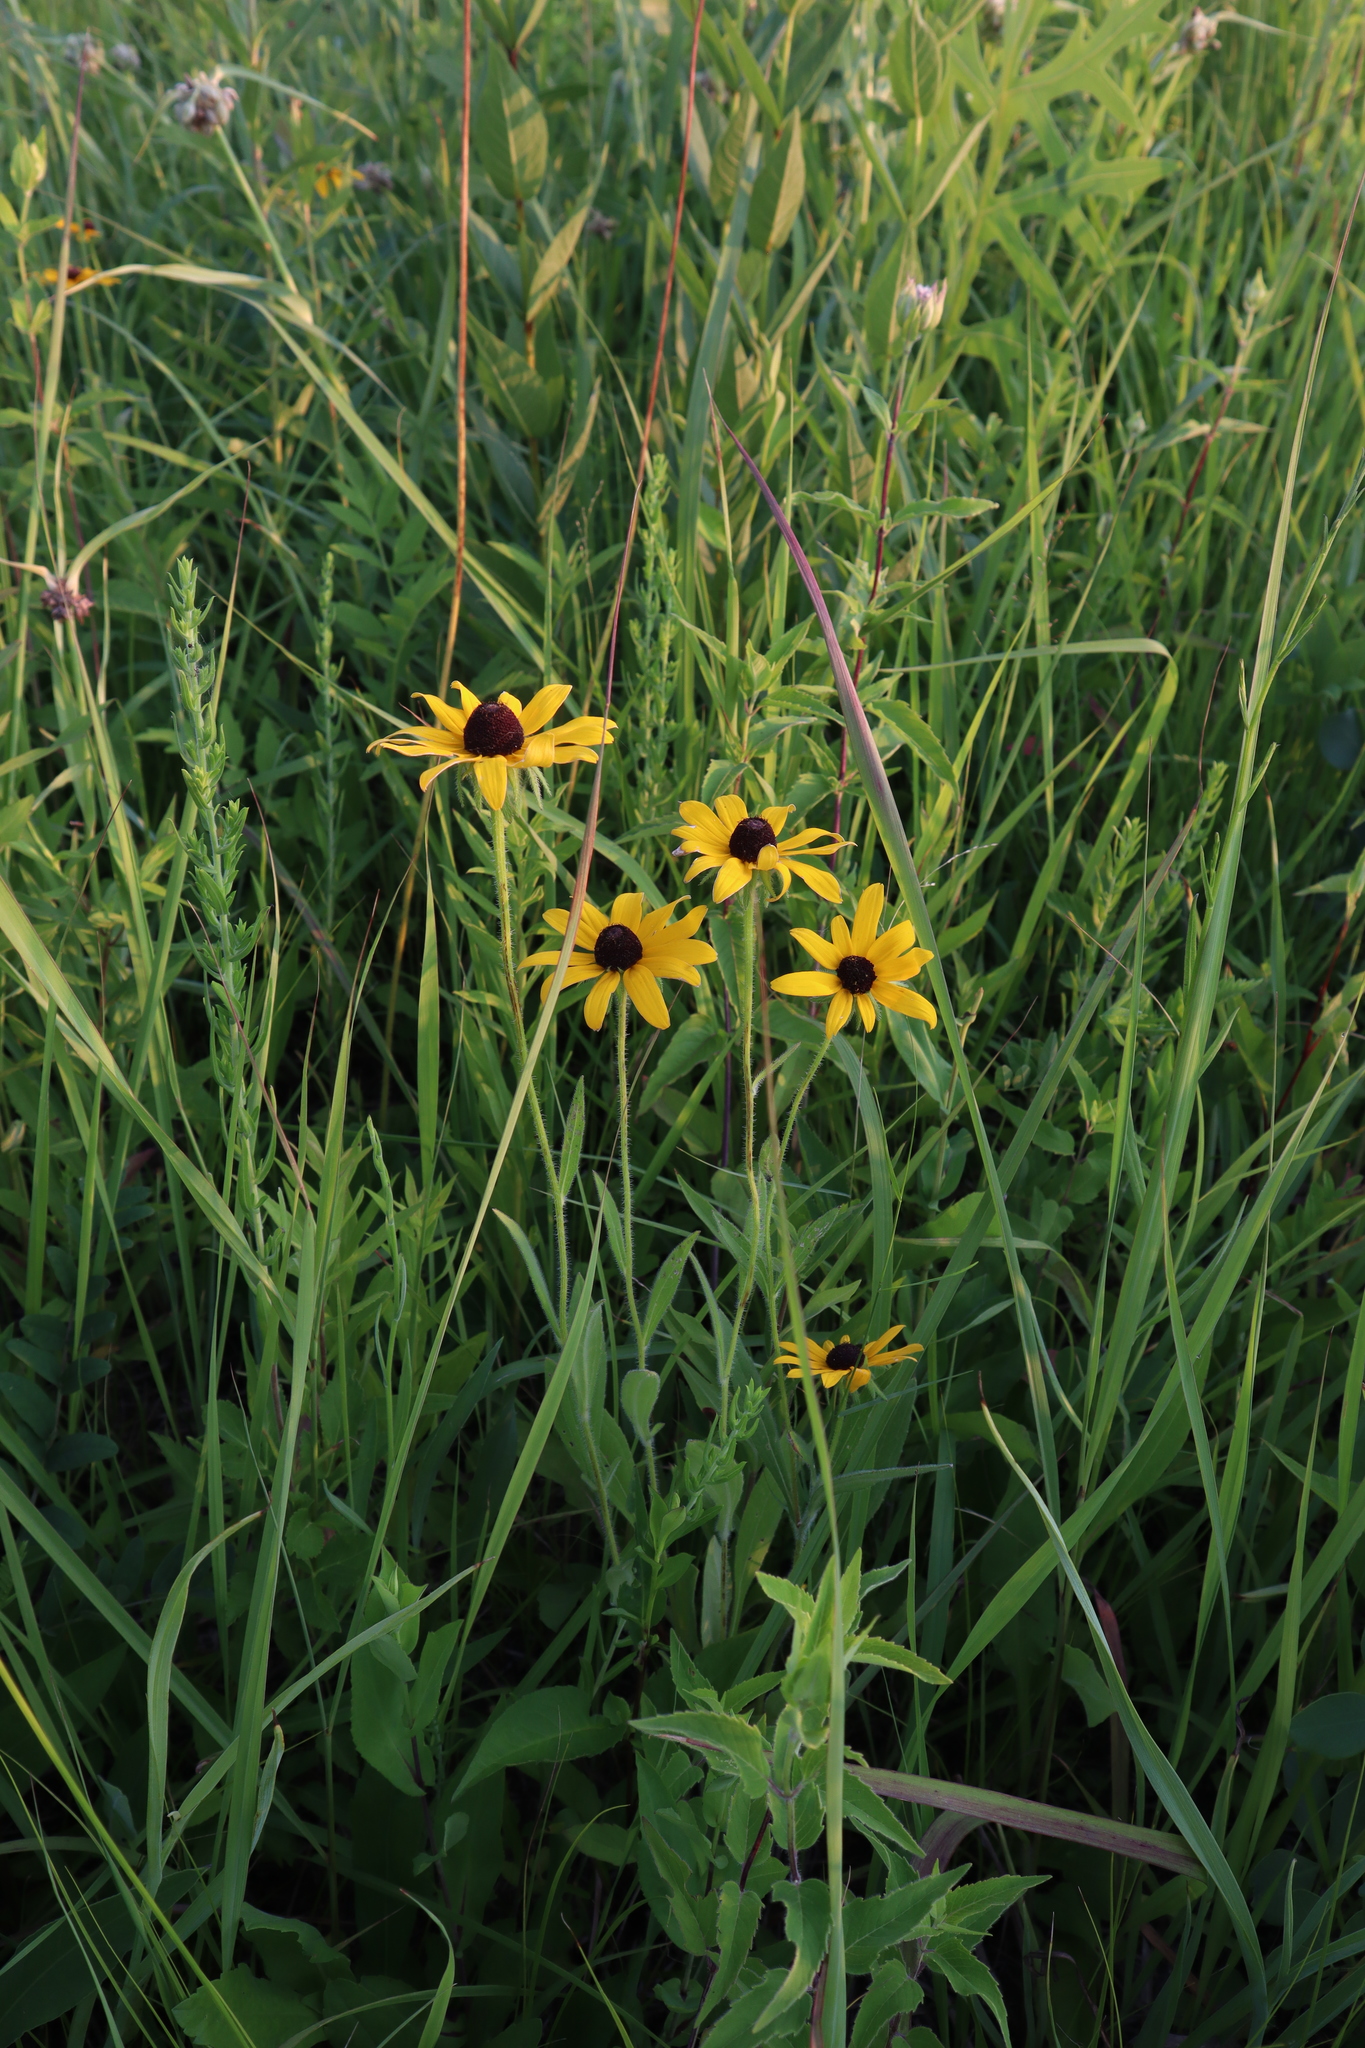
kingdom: Plantae
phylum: Tracheophyta
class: Magnoliopsida
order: Asterales
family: Asteraceae
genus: Rudbeckia
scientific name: Rudbeckia hirta
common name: Black-eyed-susan
